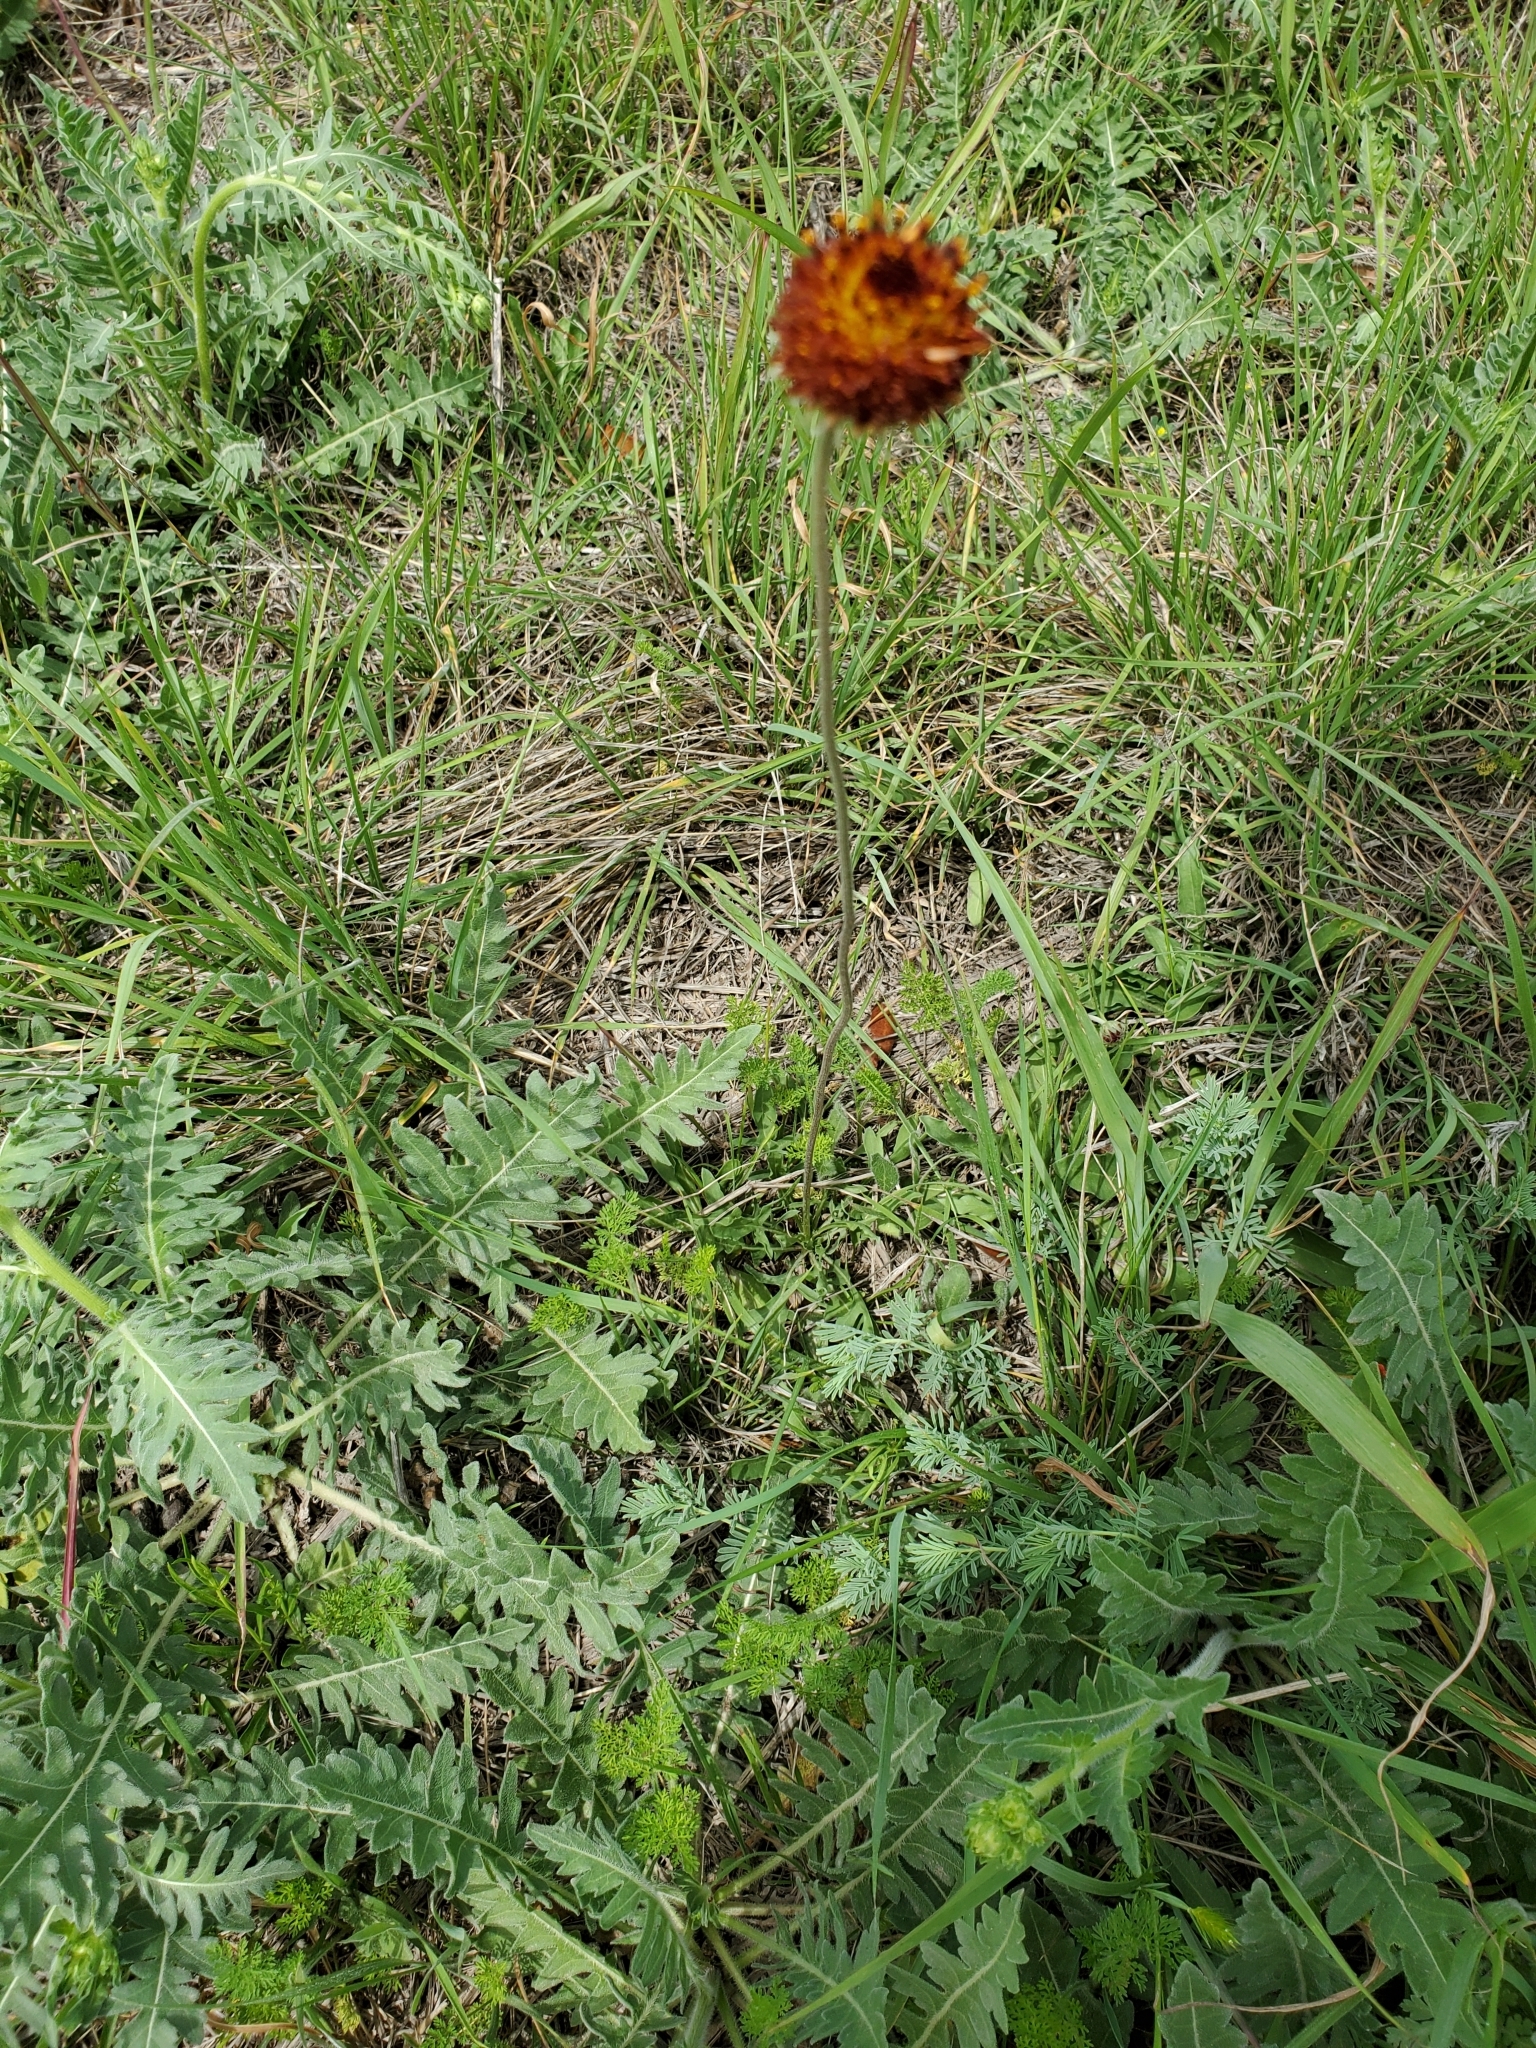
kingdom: Plantae
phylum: Tracheophyta
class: Magnoliopsida
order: Asterales
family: Asteraceae
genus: Gaillardia
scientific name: Gaillardia suavis
